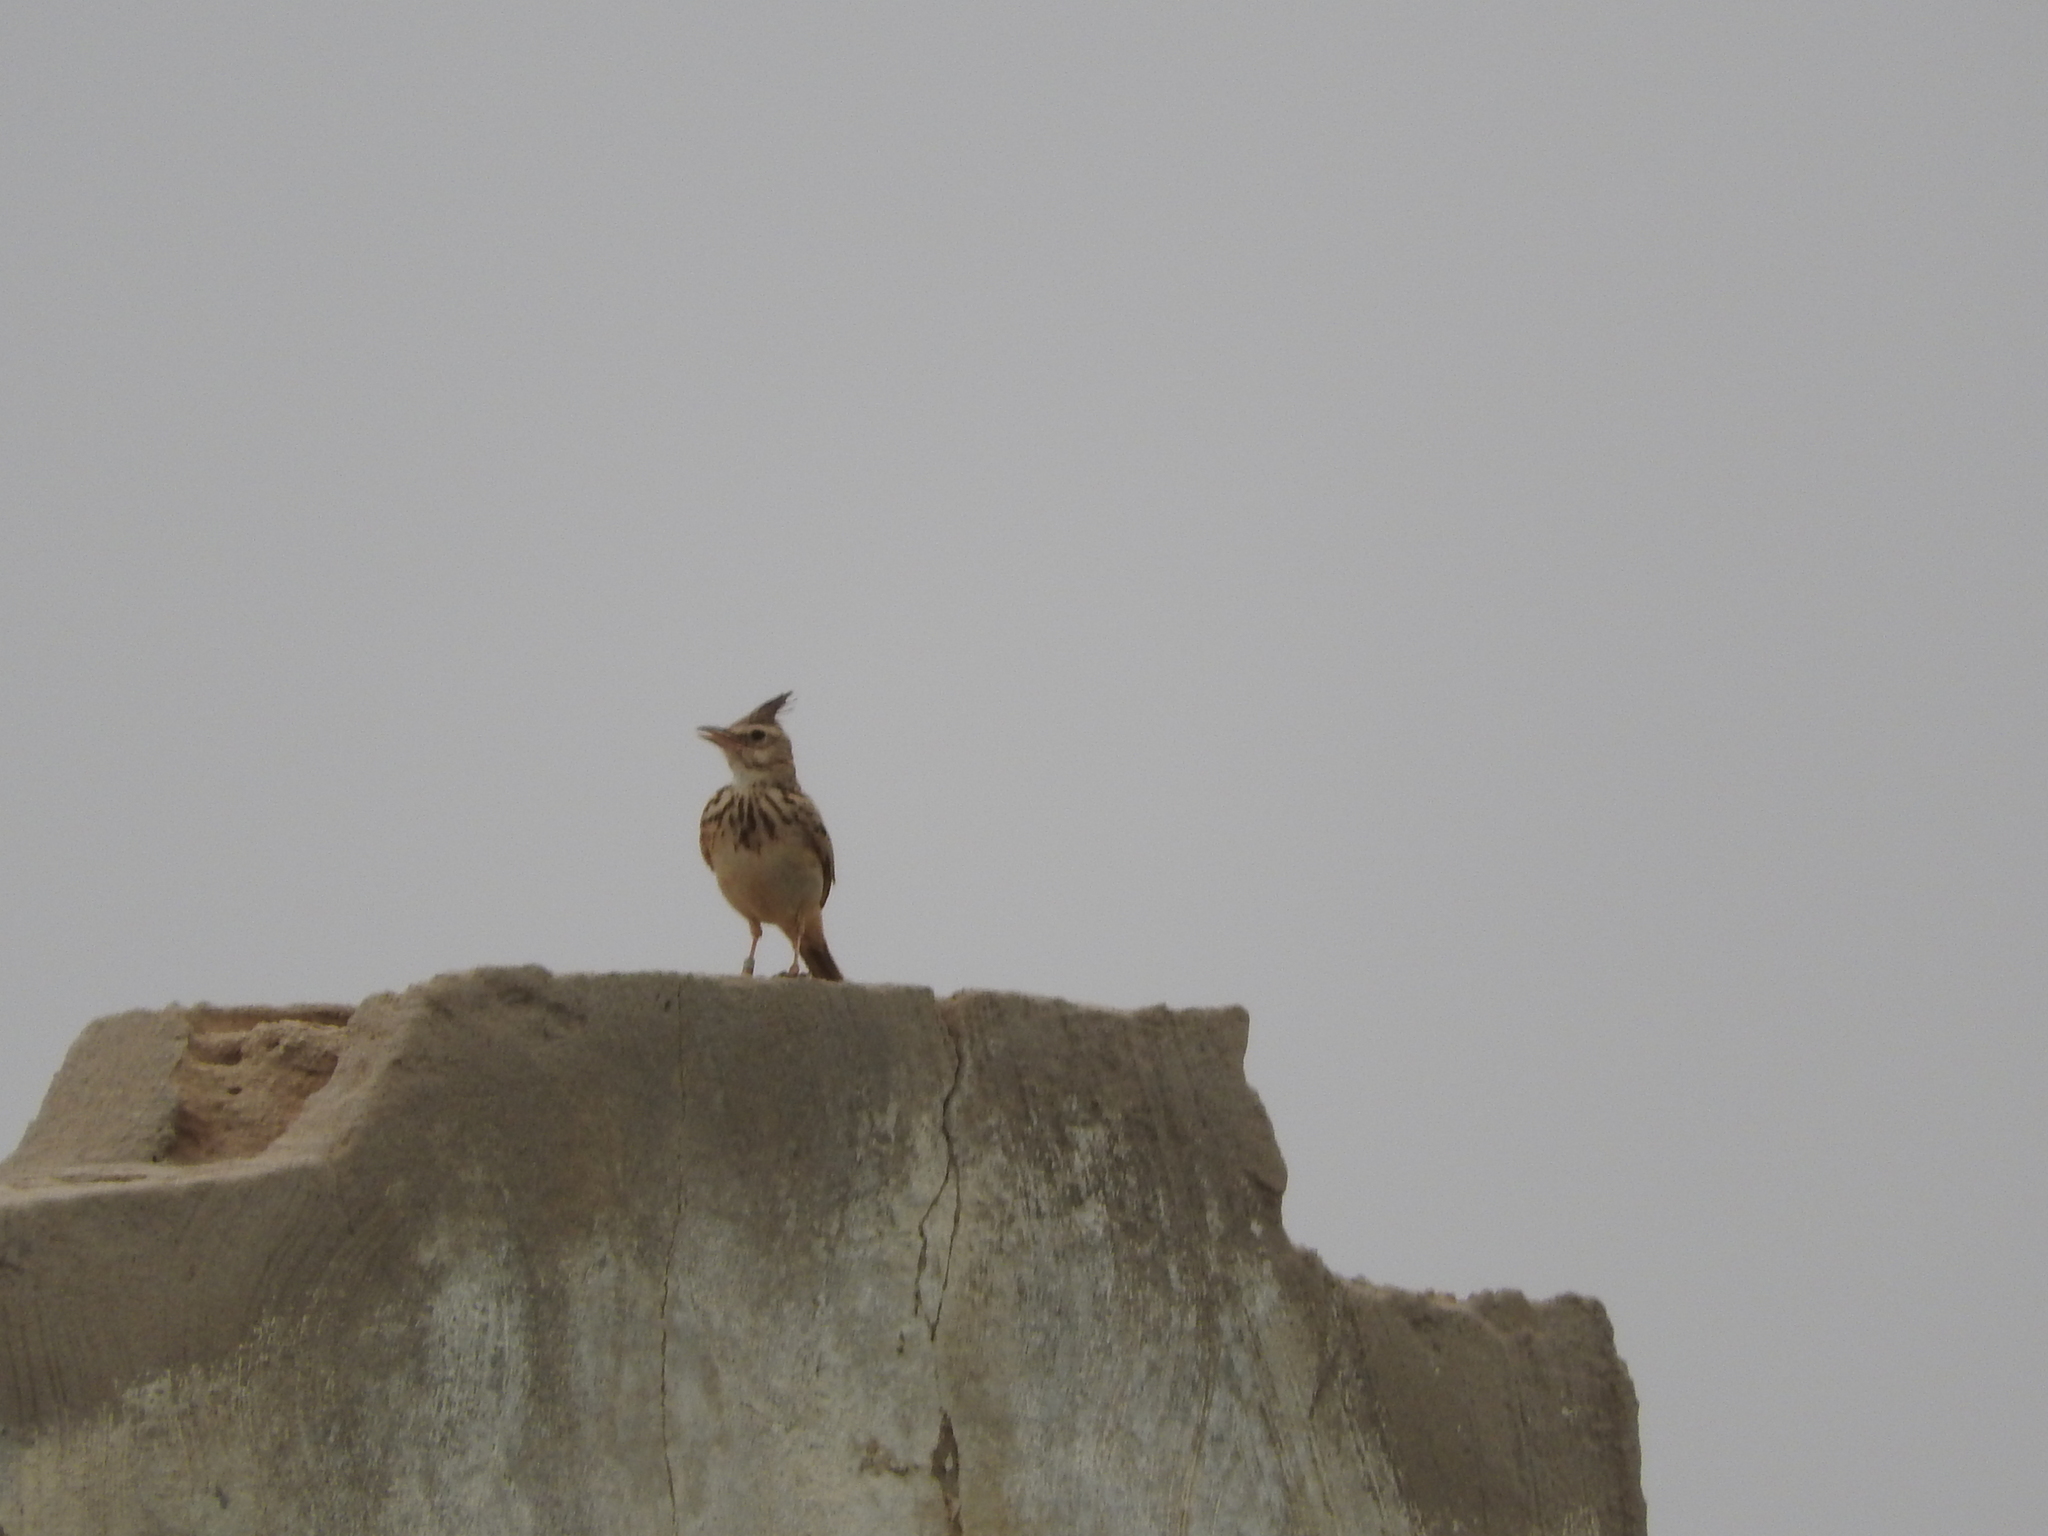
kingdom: Animalia
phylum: Chordata
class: Aves
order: Passeriformes
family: Alaudidae
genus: Galerida
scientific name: Galerida cristata
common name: Crested lark
